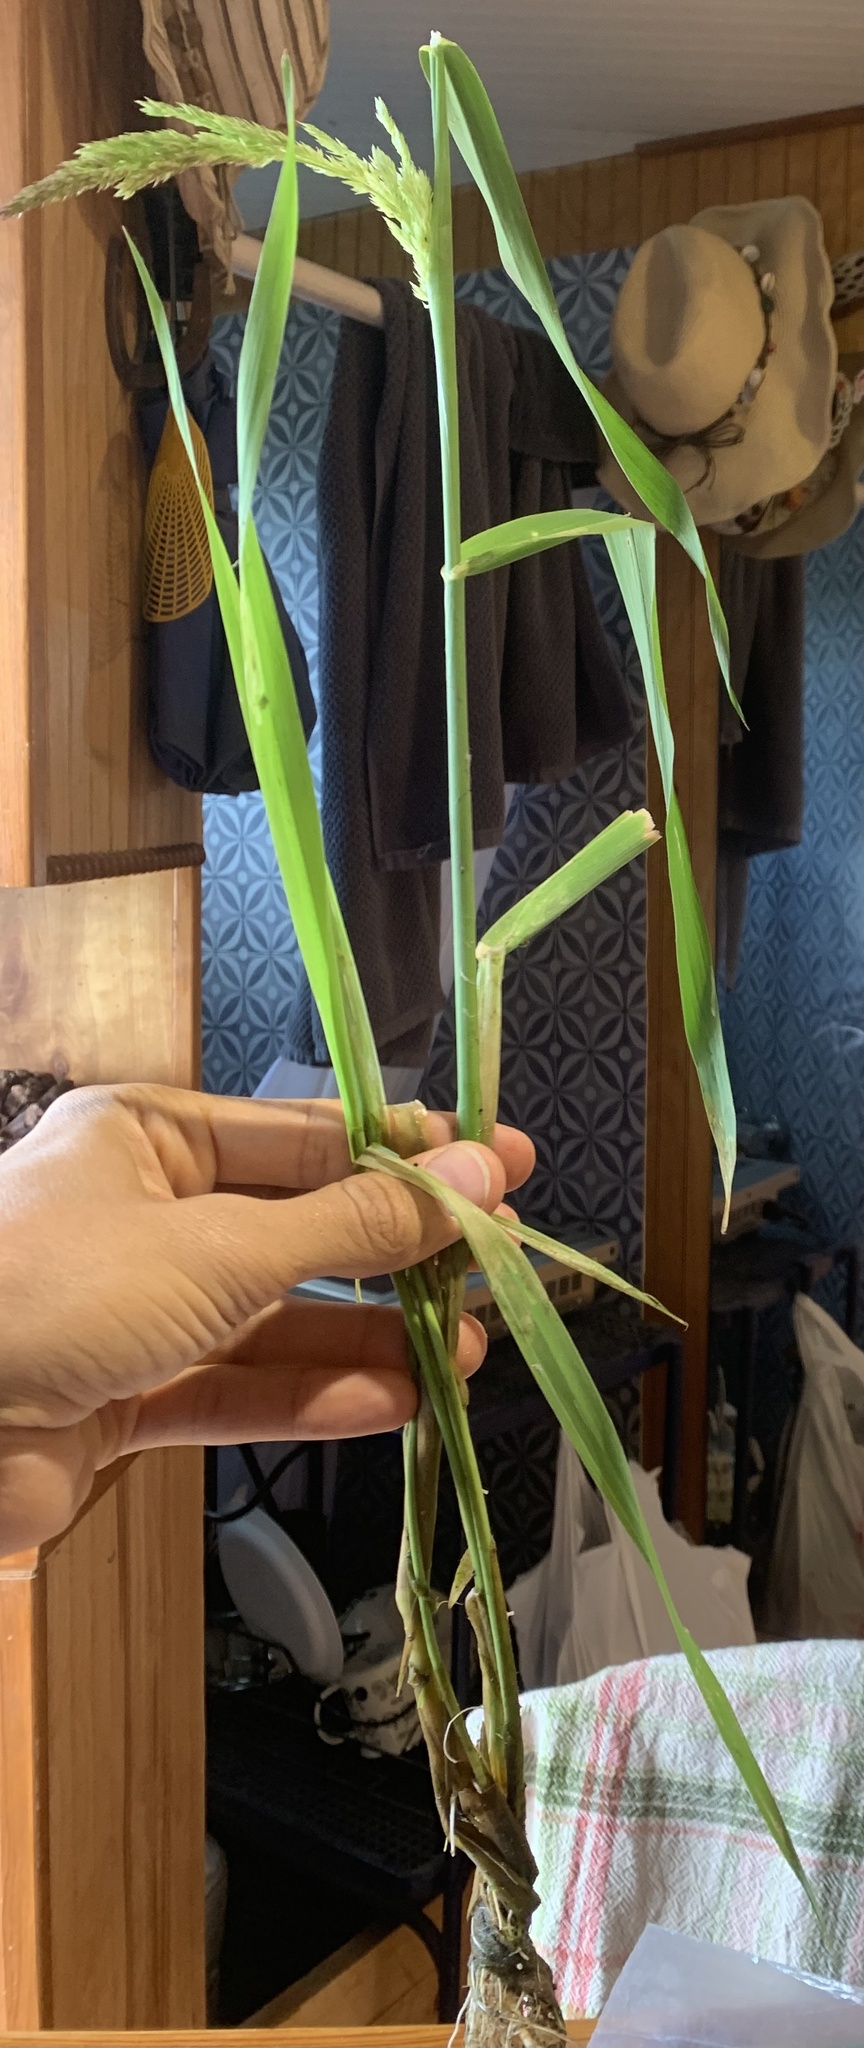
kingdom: Plantae
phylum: Tracheophyta
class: Liliopsida
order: Poales
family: Poaceae
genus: Phalaris
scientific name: Phalaris arundinacea
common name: Reed canary-grass
